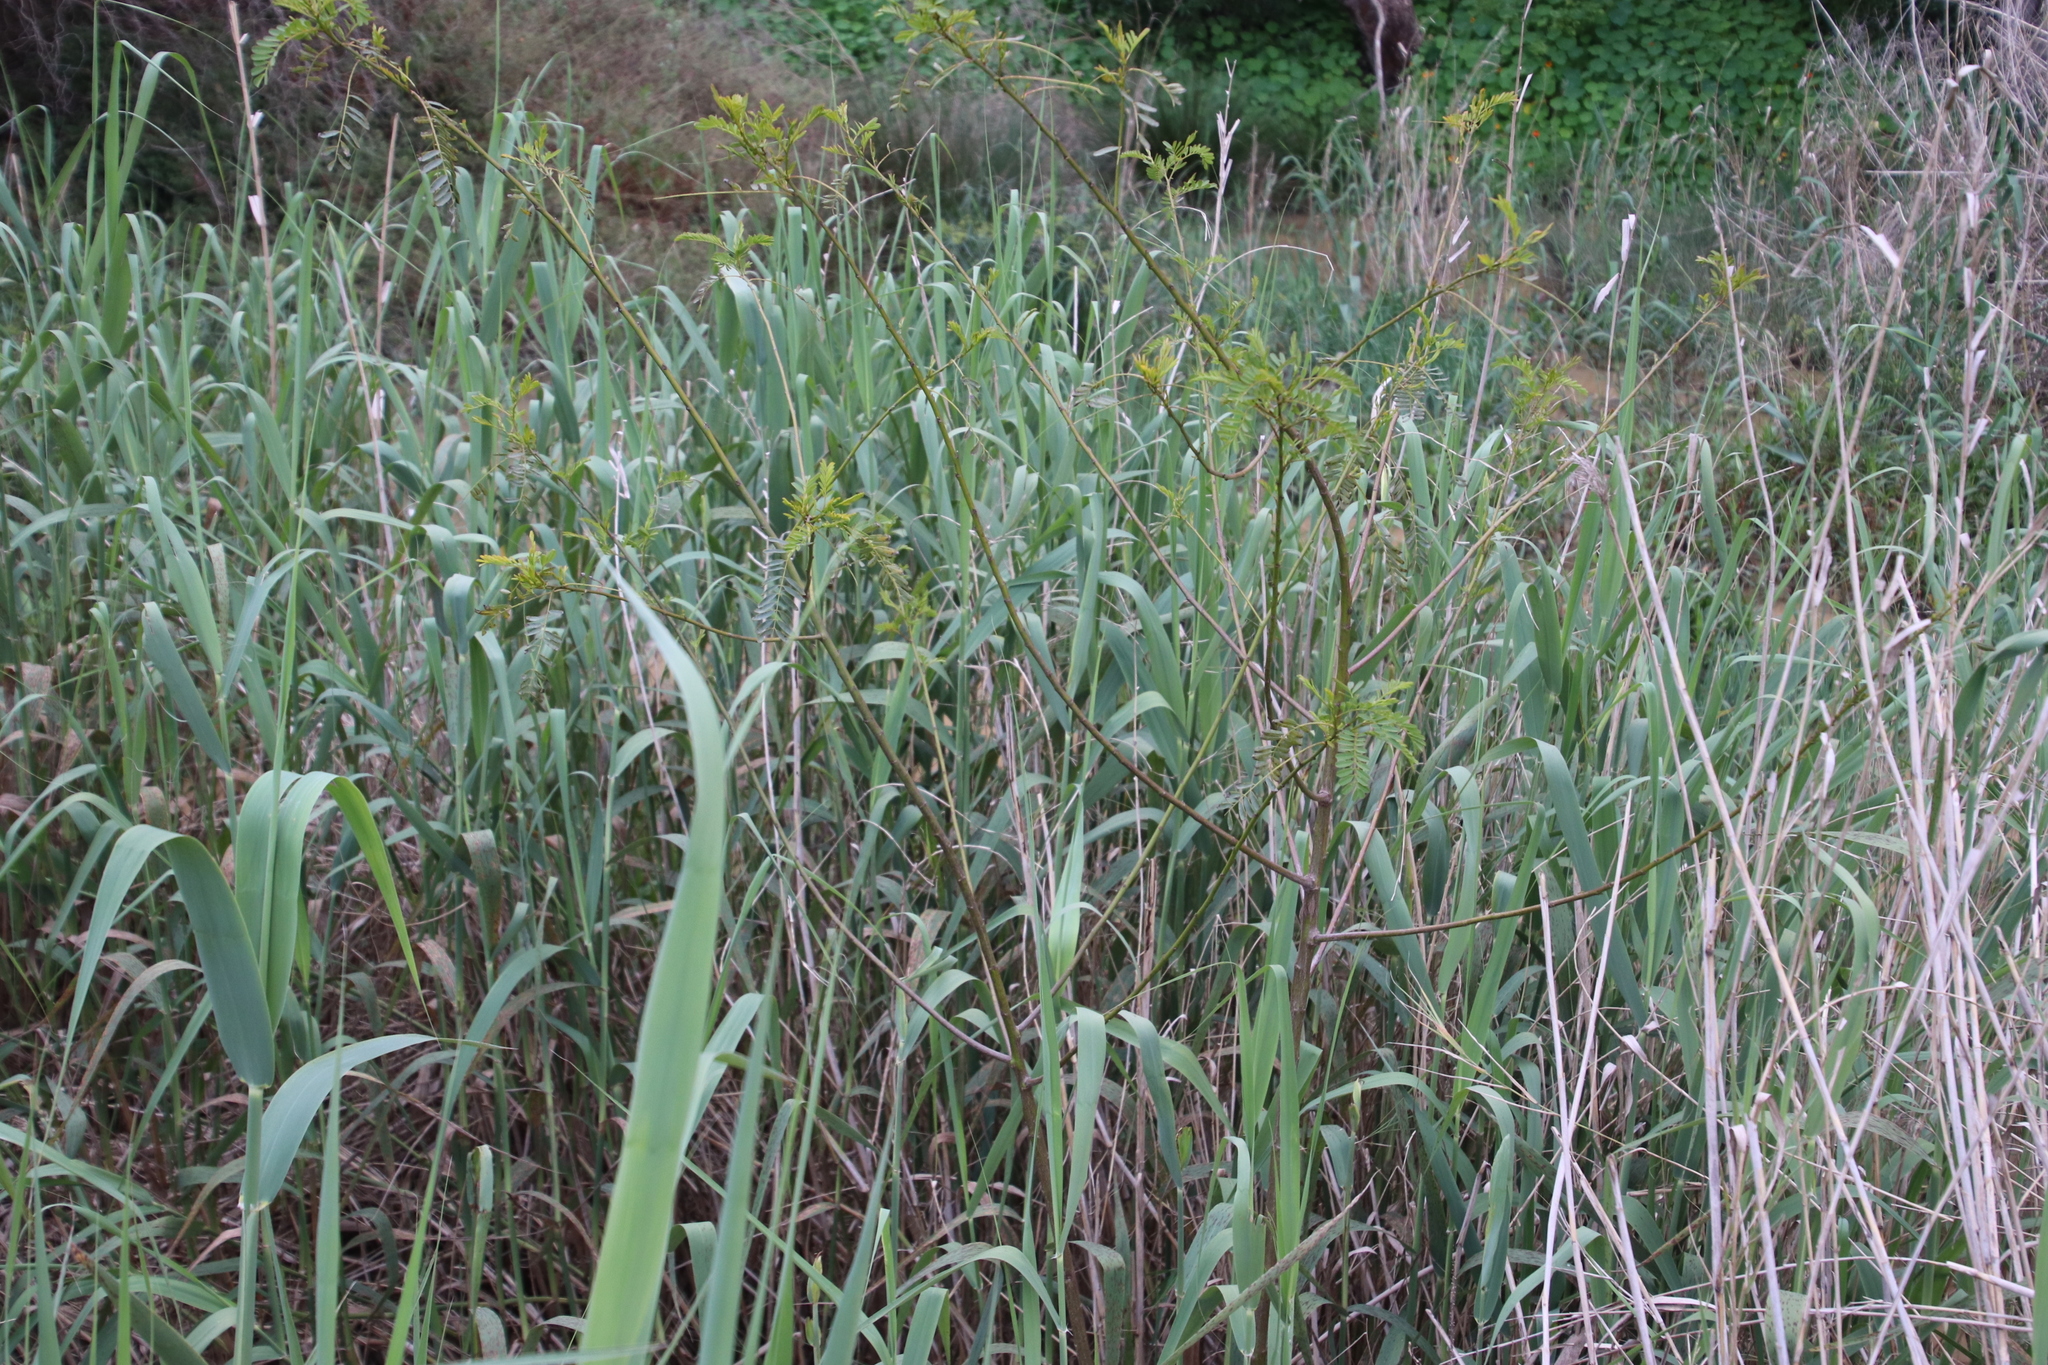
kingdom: Plantae
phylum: Tracheophyta
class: Magnoliopsida
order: Fabales
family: Fabaceae
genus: Sesbania
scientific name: Sesbania punicea
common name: Rattlebox
